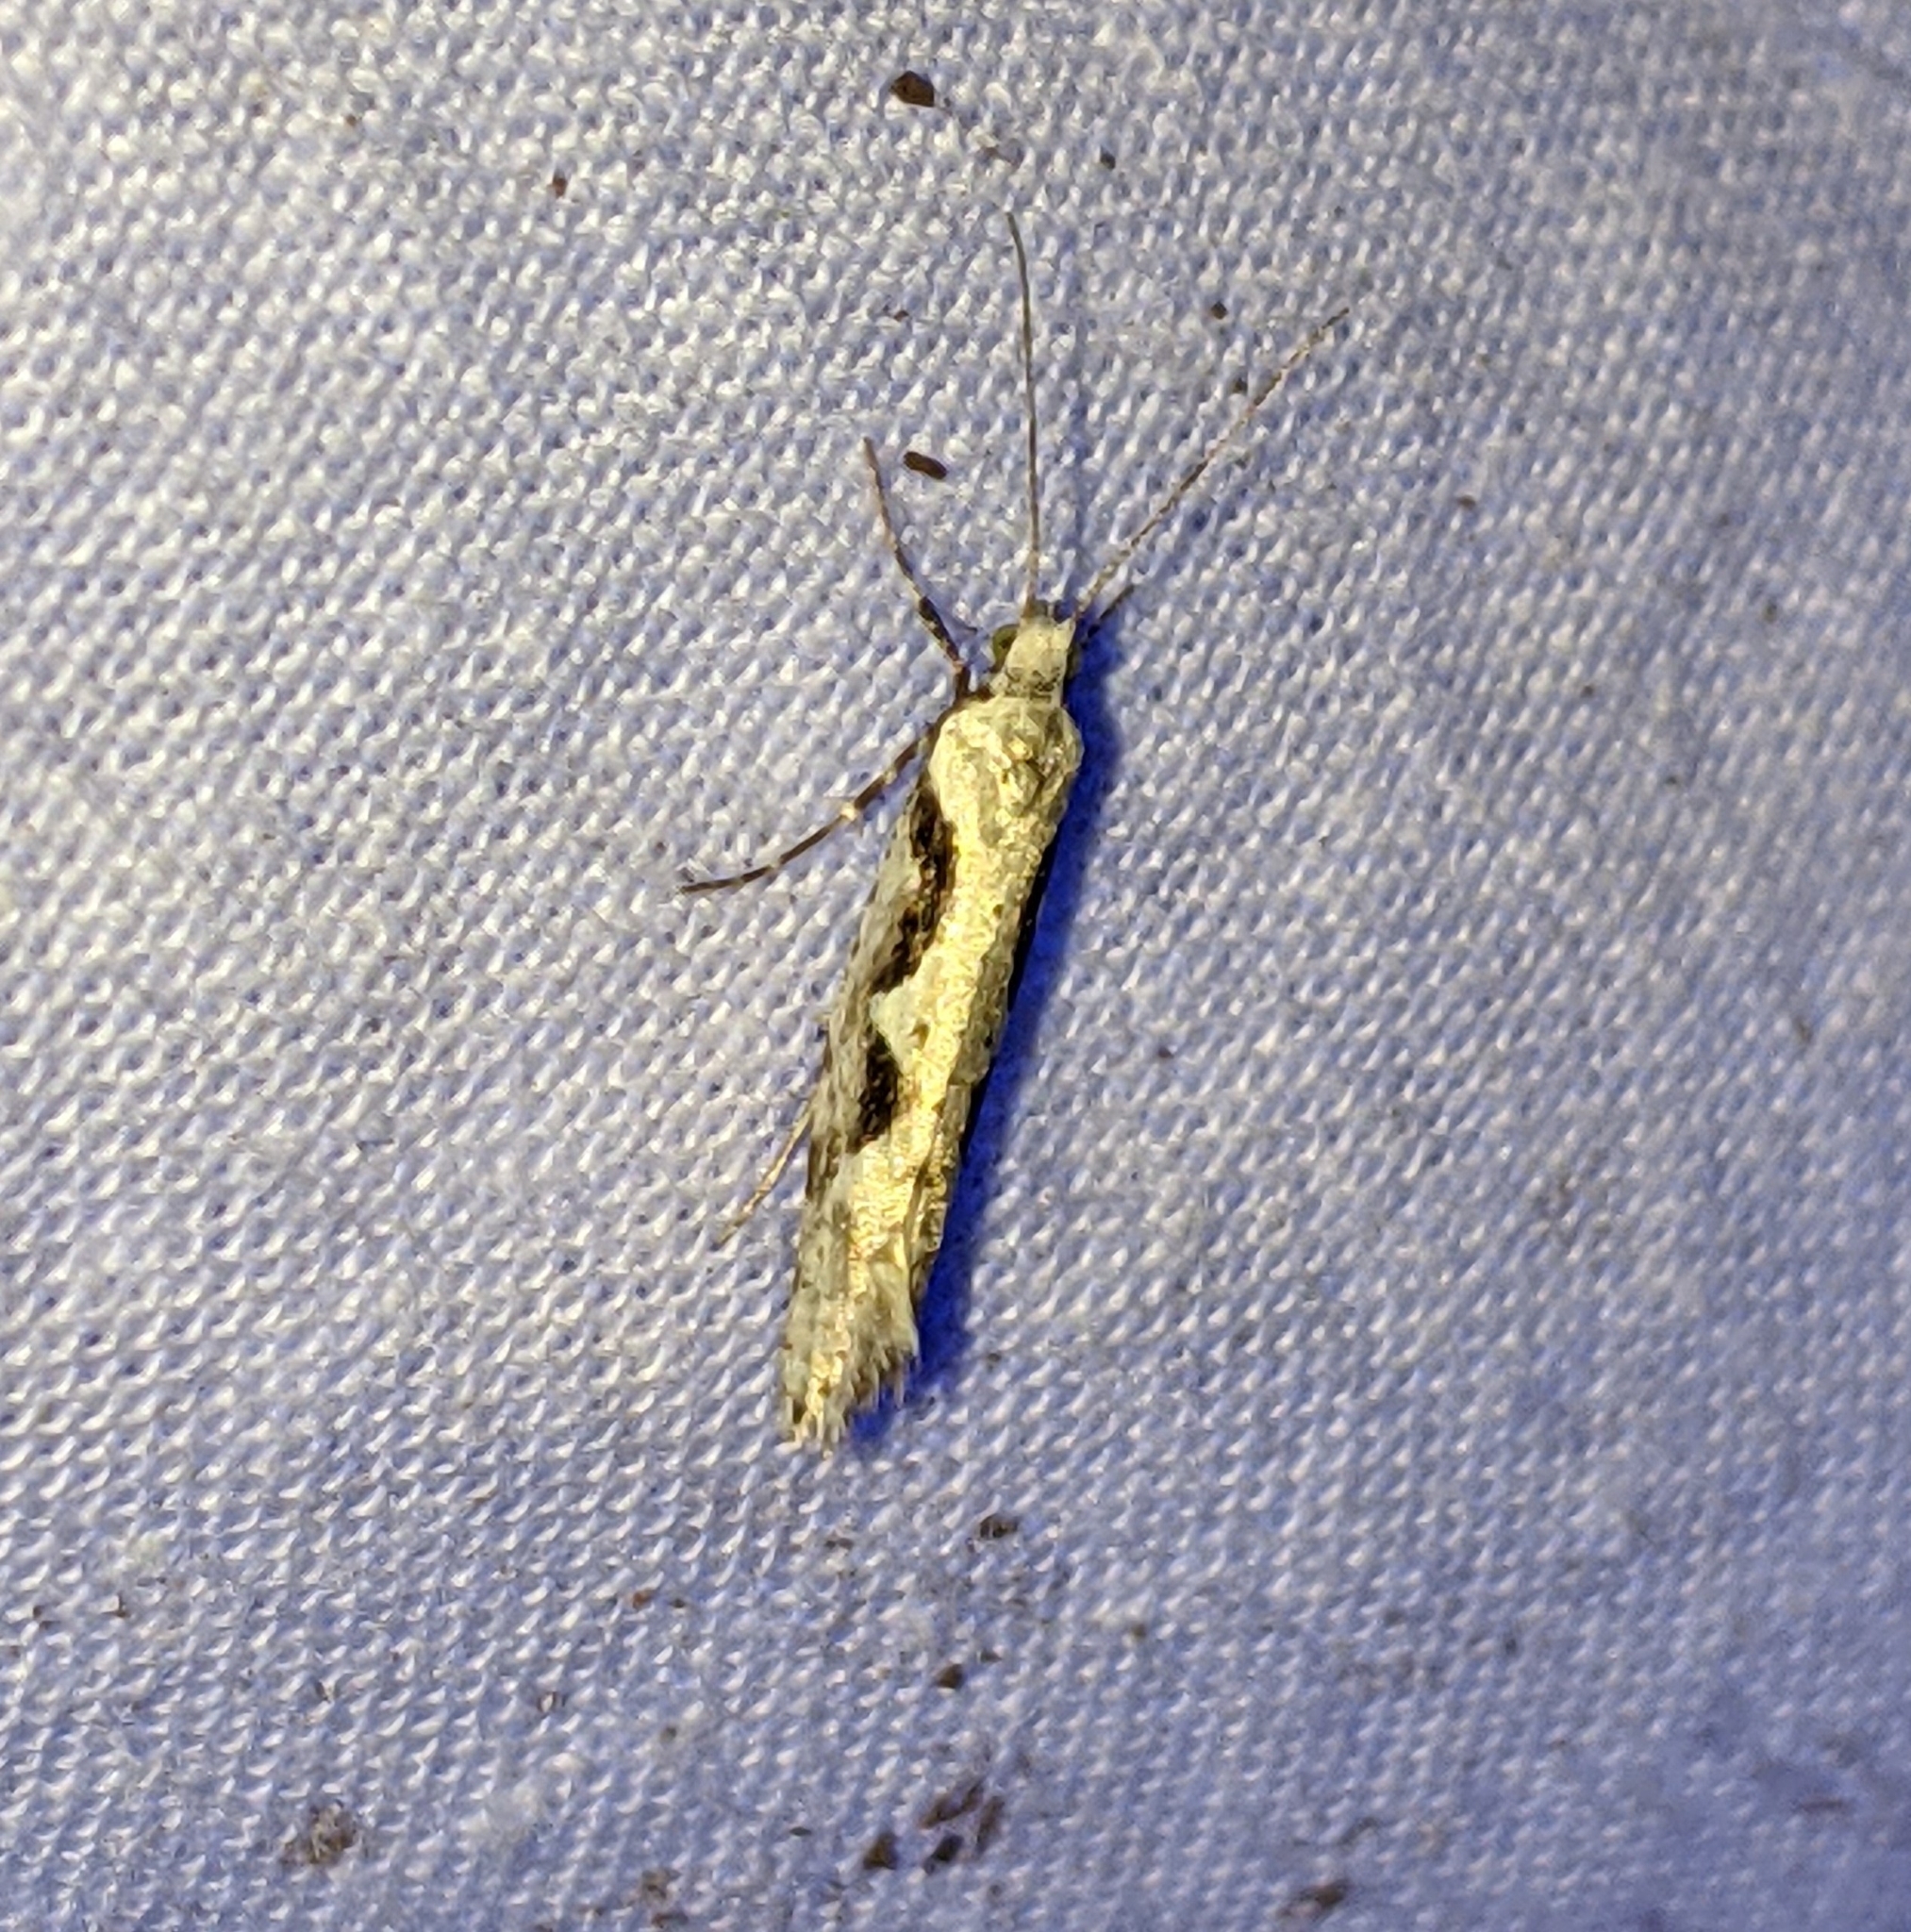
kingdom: Animalia
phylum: Arthropoda
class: Insecta
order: Lepidoptera
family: Plutellidae
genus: Rhigognostis
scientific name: Rhigognostis interrupta
